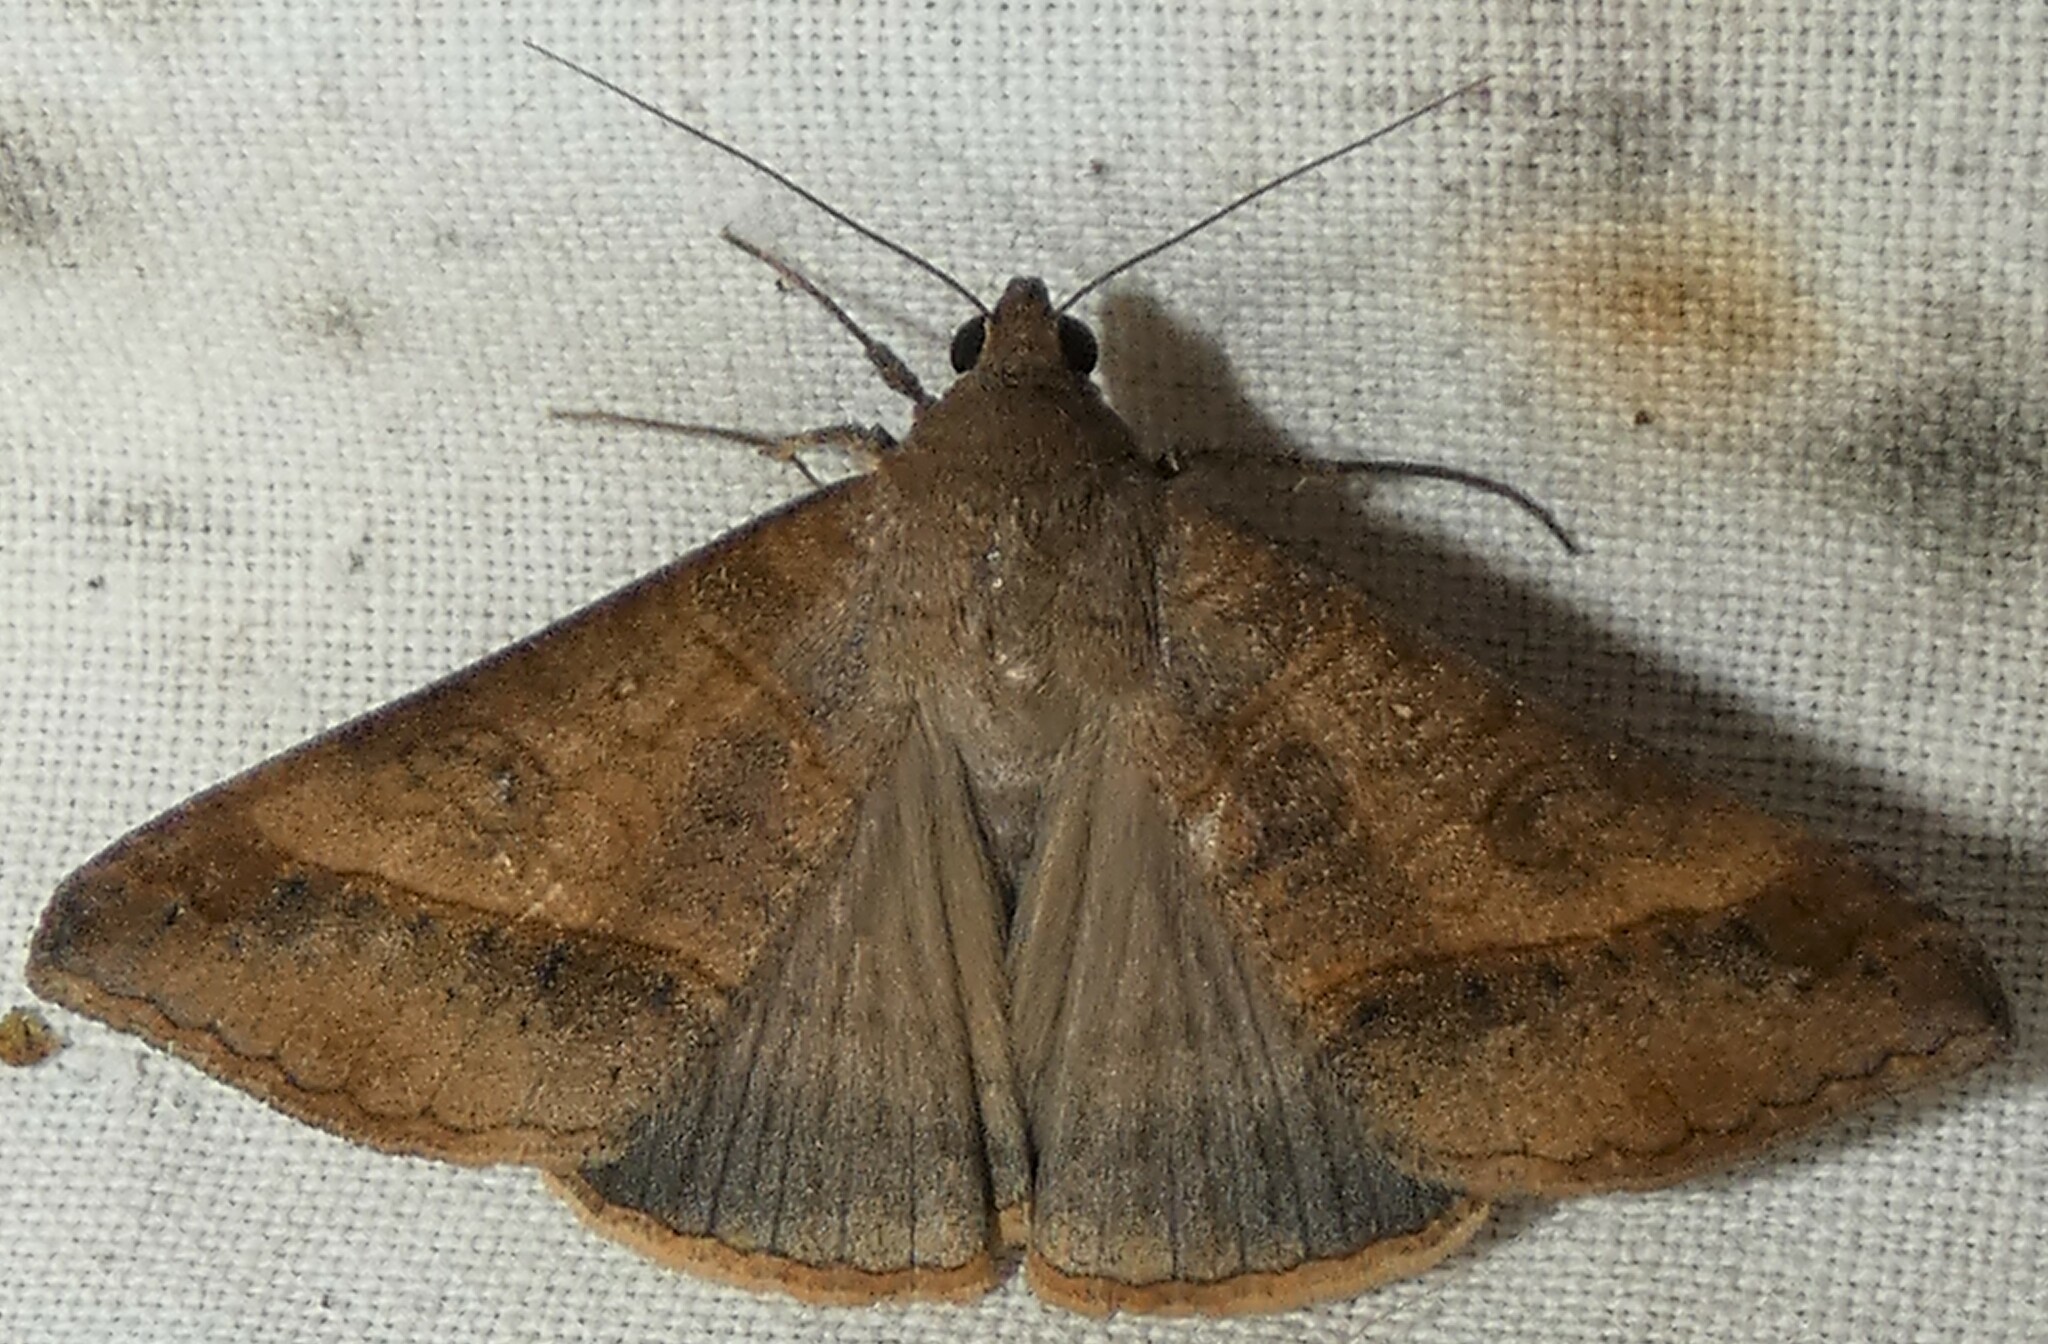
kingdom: Animalia
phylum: Arthropoda
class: Insecta
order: Lepidoptera
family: Erebidae
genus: Mocis
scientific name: Mocis latipes
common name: Striped grass looper
